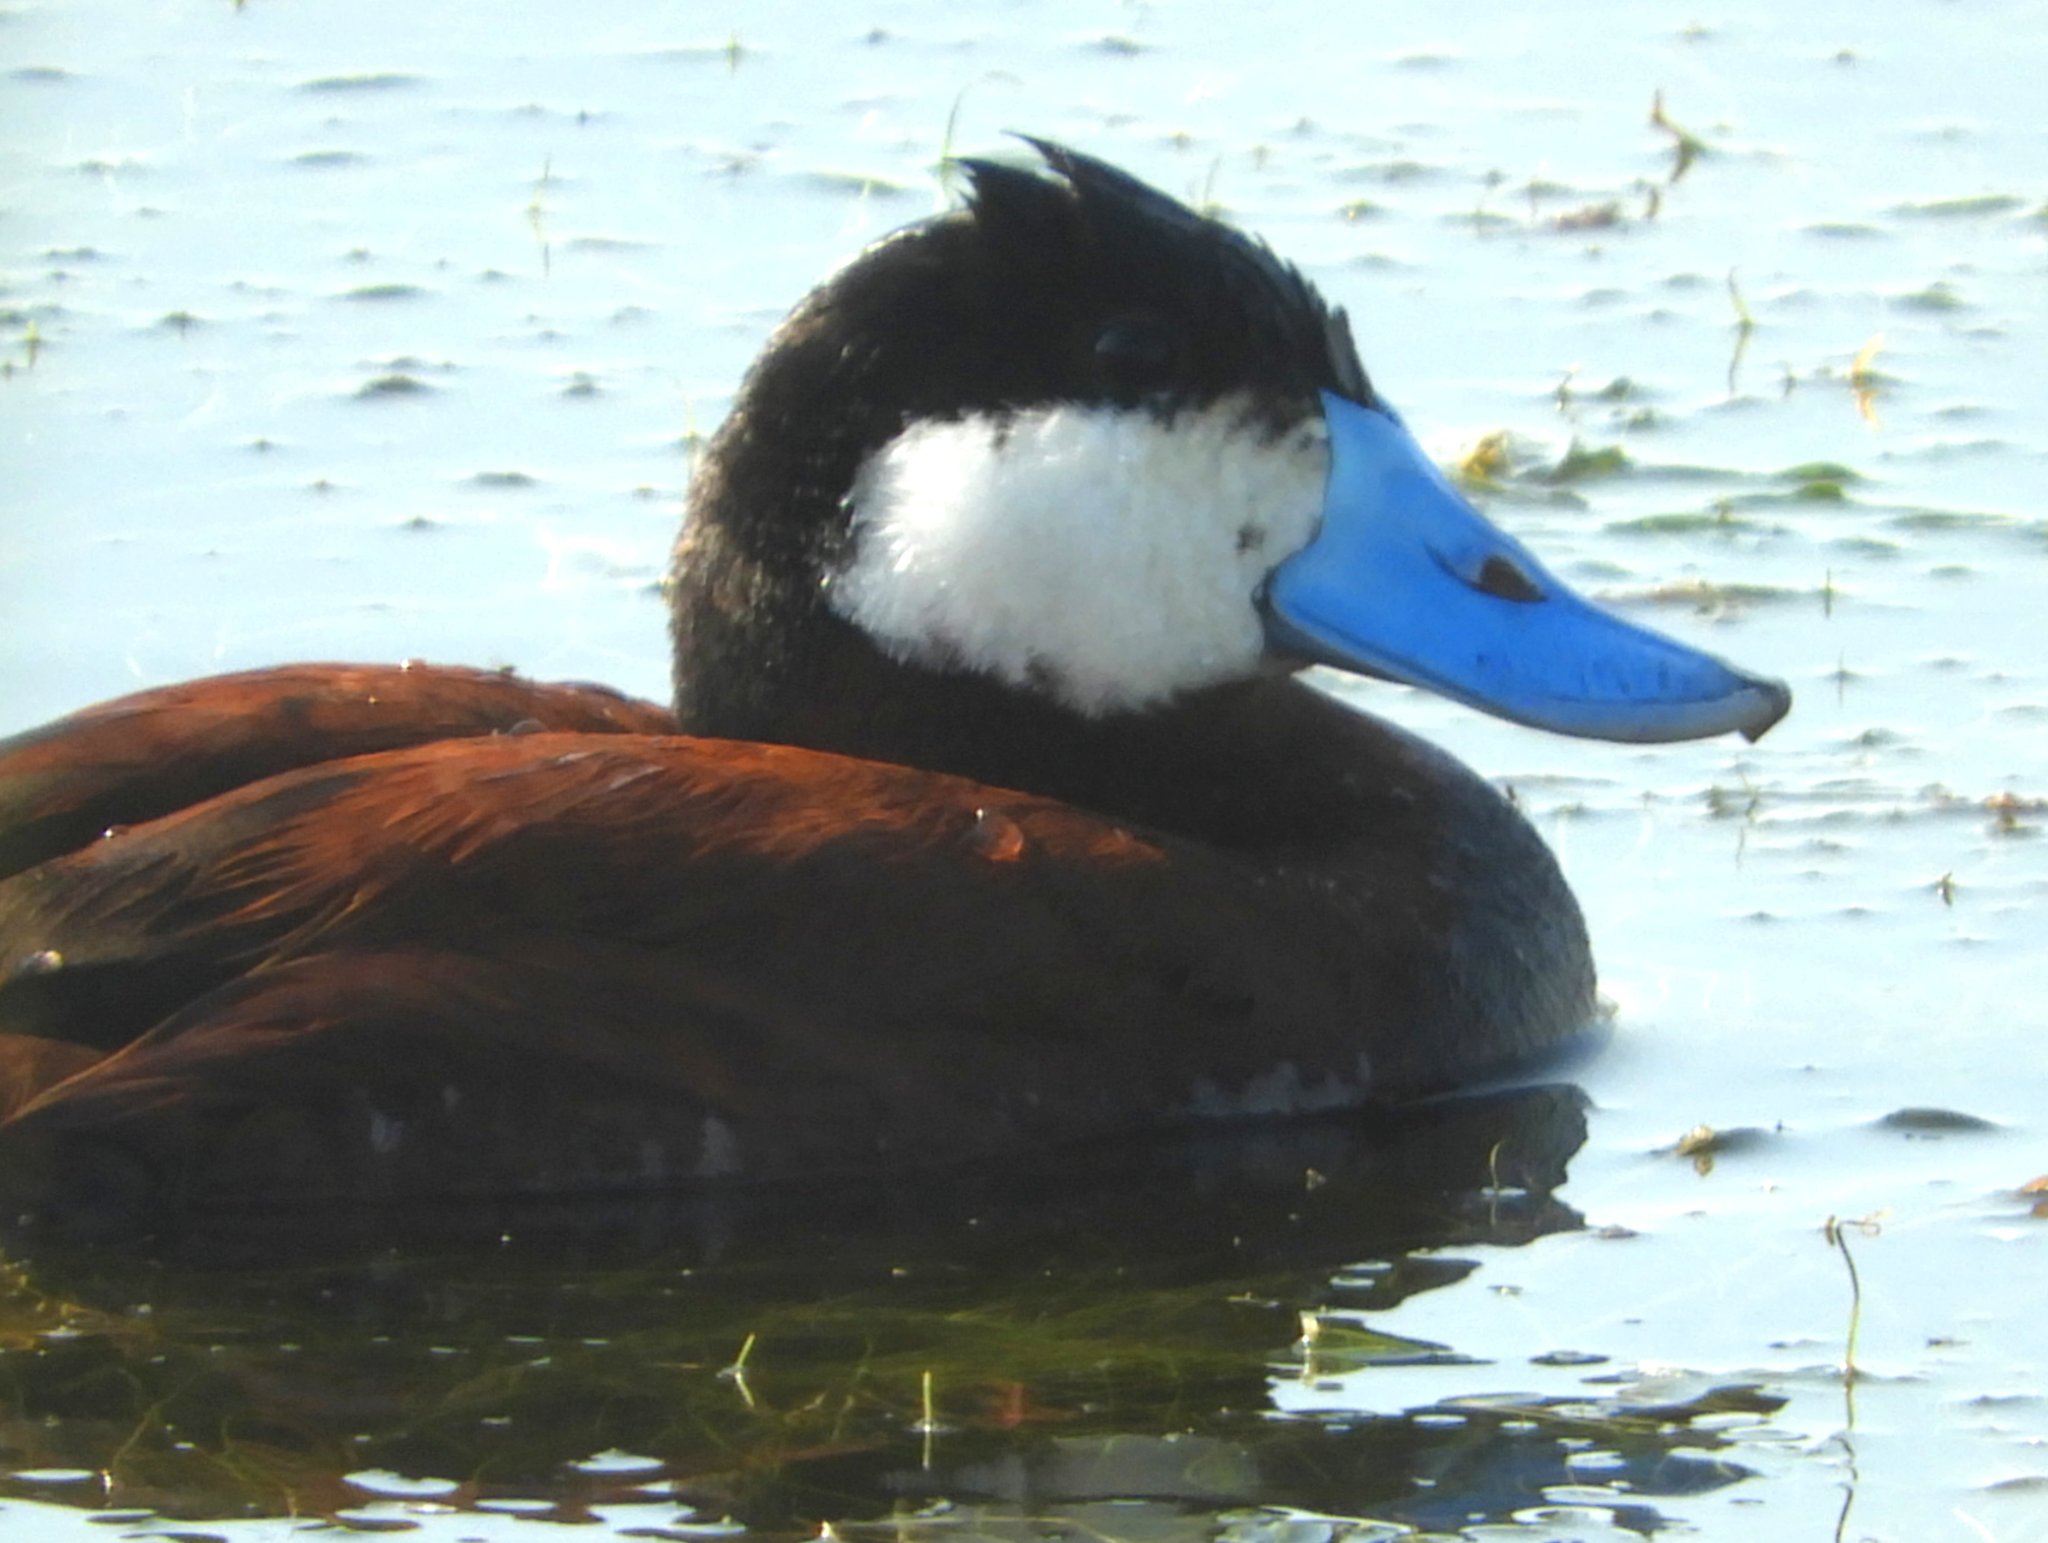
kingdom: Animalia
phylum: Chordata
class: Aves
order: Anseriformes
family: Anatidae
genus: Oxyura
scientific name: Oxyura jamaicensis
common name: Ruddy duck
